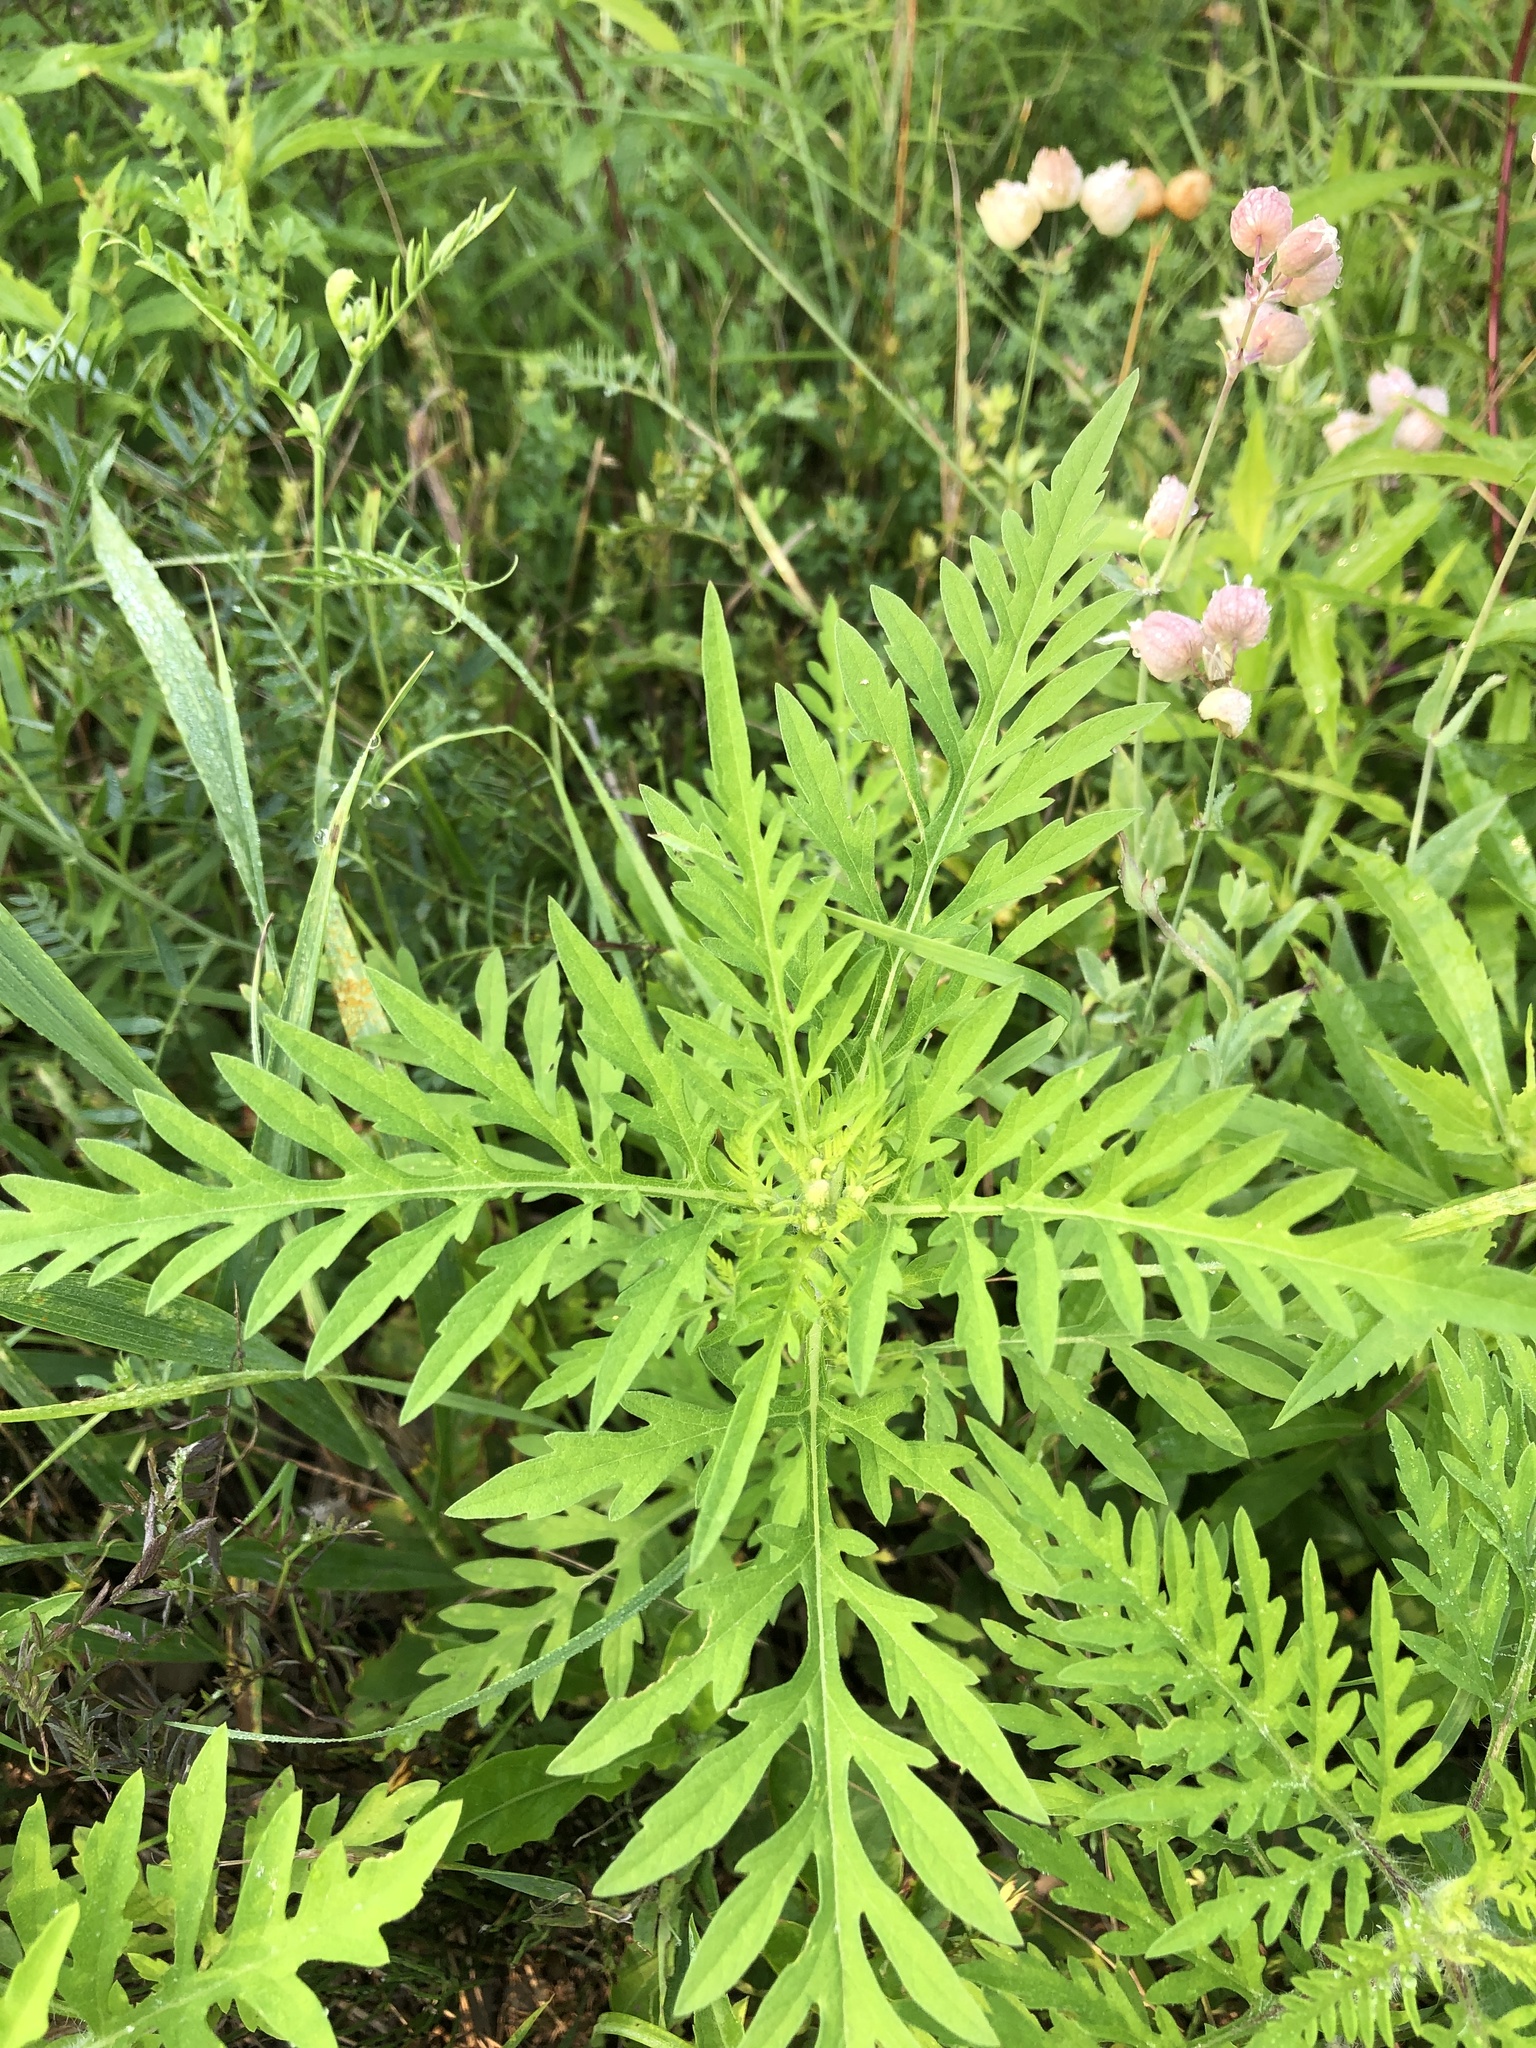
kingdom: Plantae
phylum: Tracheophyta
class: Magnoliopsida
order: Asterales
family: Asteraceae
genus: Ambrosia
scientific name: Ambrosia artemisiifolia
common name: Annual ragweed
